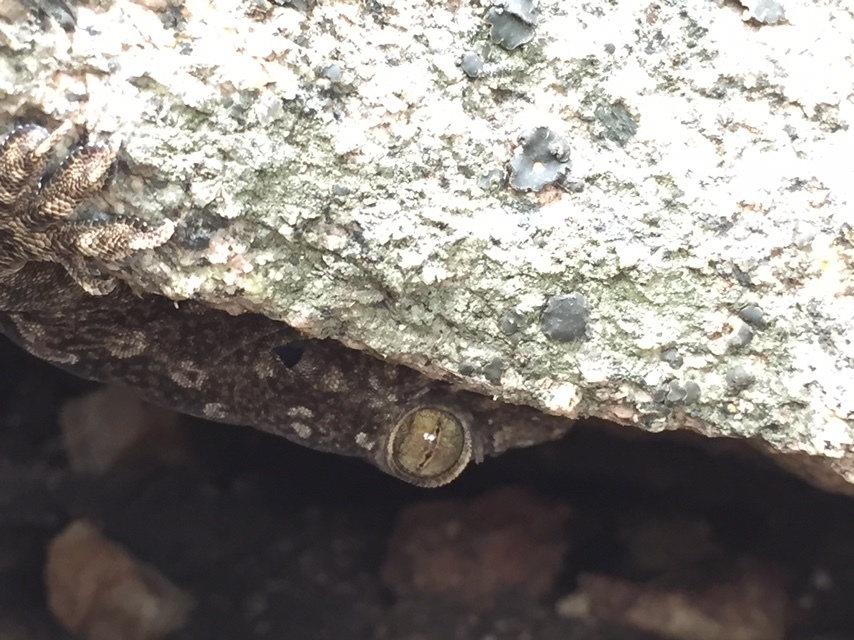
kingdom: Animalia
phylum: Chordata
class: Squamata
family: Gekkonidae
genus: Hemidactylus
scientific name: Hemidactylus leschenaultii
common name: Leschenault's leaf-toed gecko
